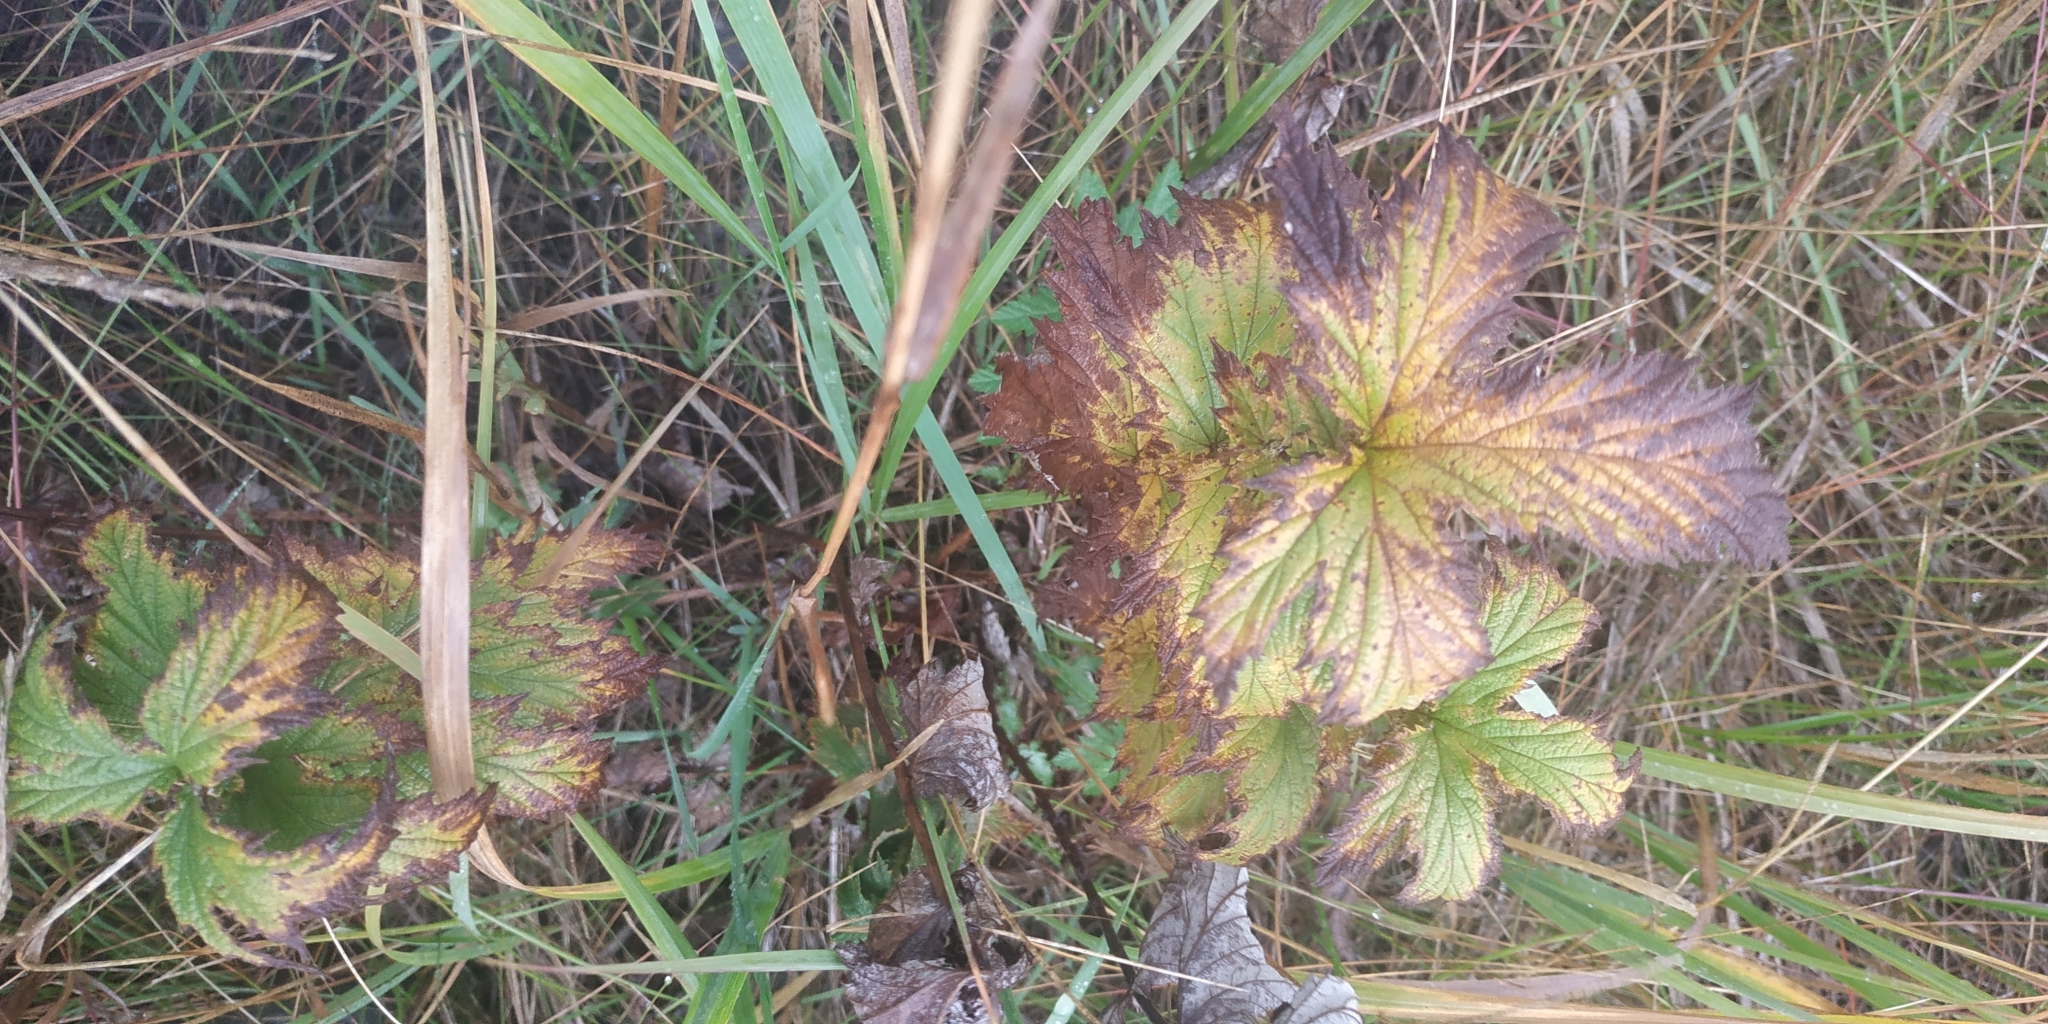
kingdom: Plantae
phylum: Tracheophyta
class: Magnoliopsida
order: Rosales
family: Rosaceae
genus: Filipendula
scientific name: Filipendula ulmaria
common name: Meadowsweet
